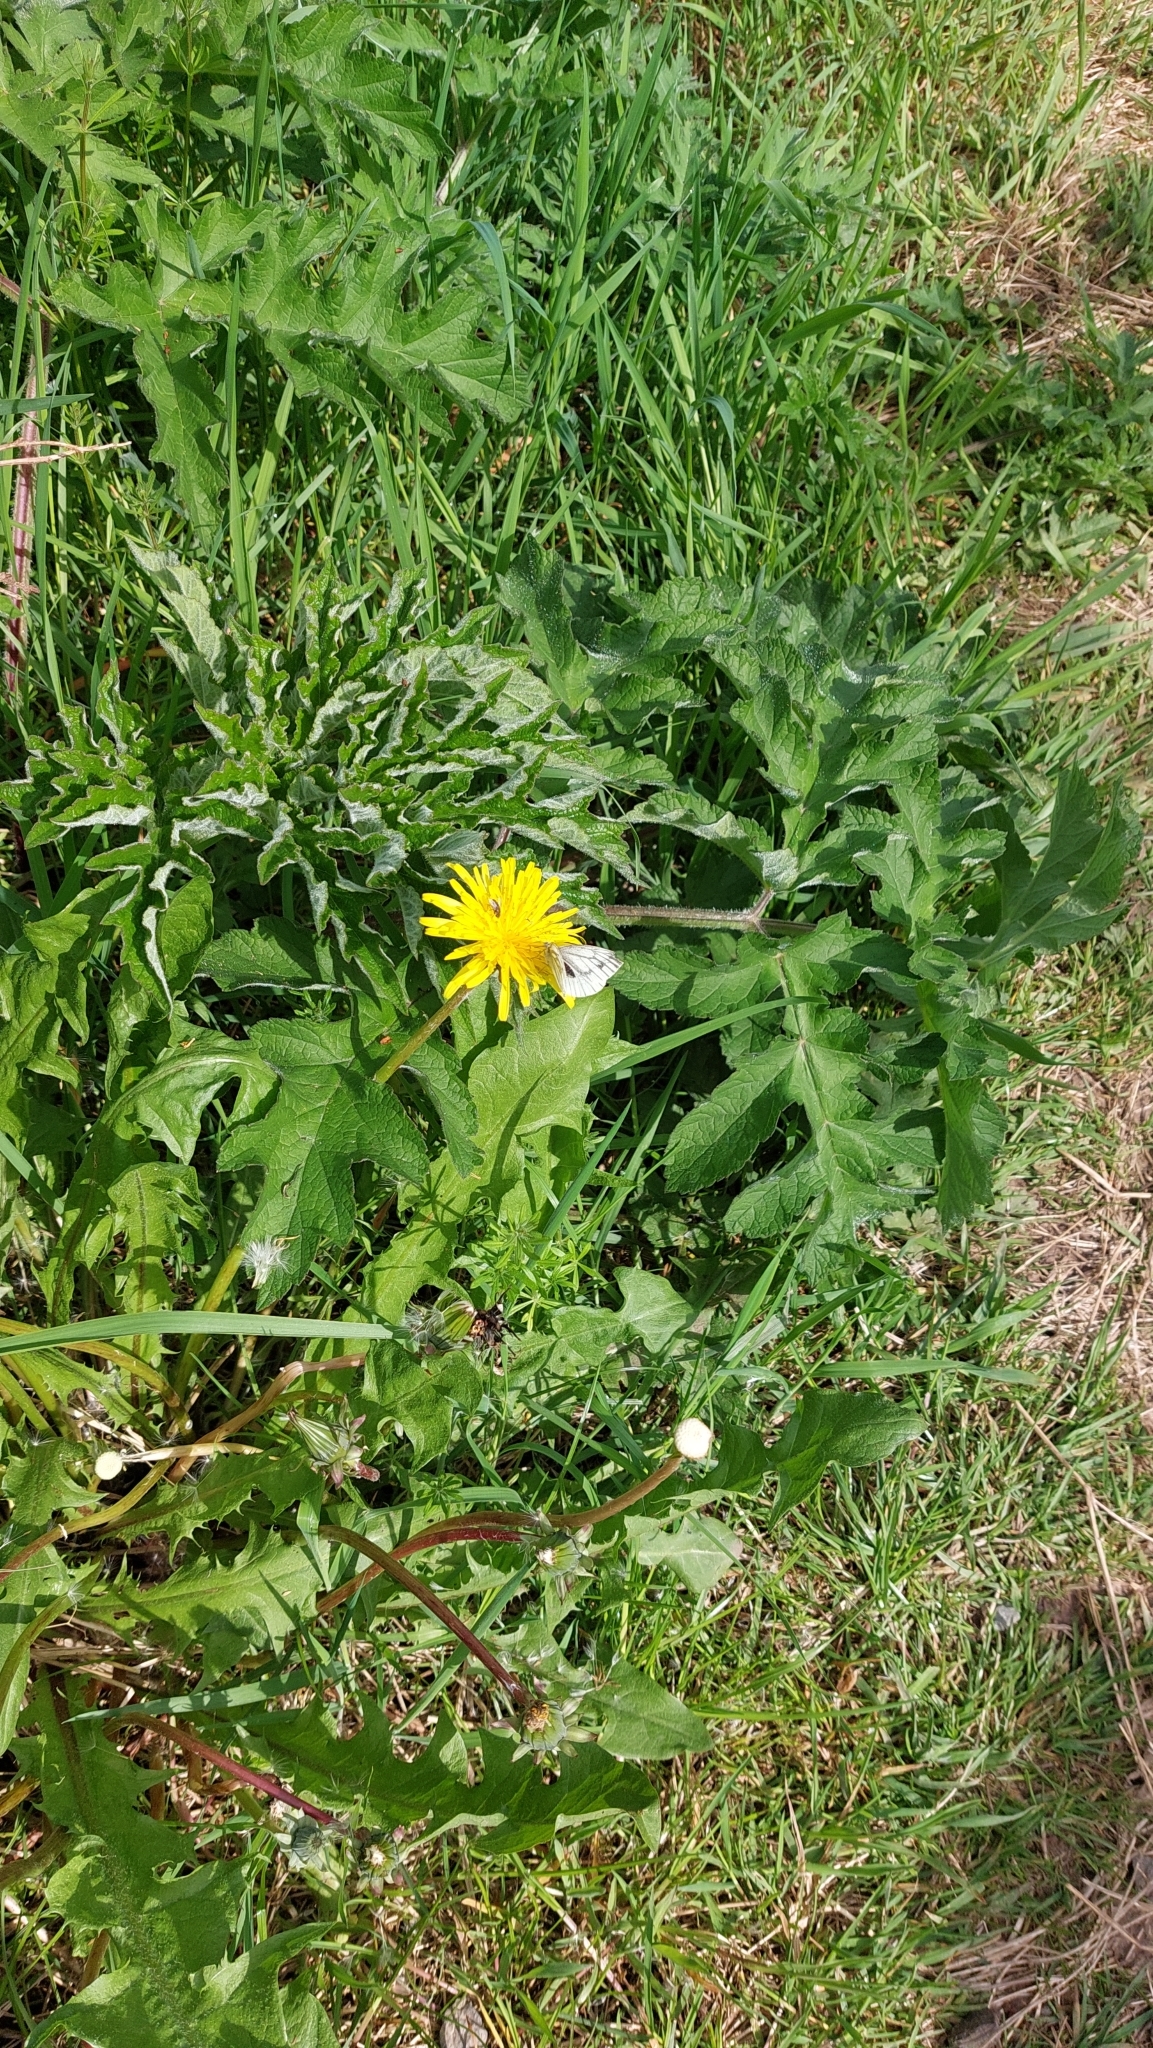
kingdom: Plantae
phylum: Tracheophyta
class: Magnoliopsida
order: Apiales
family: Apiaceae
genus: Heracleum
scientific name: Heracleum sphondylium
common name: Hogweed
